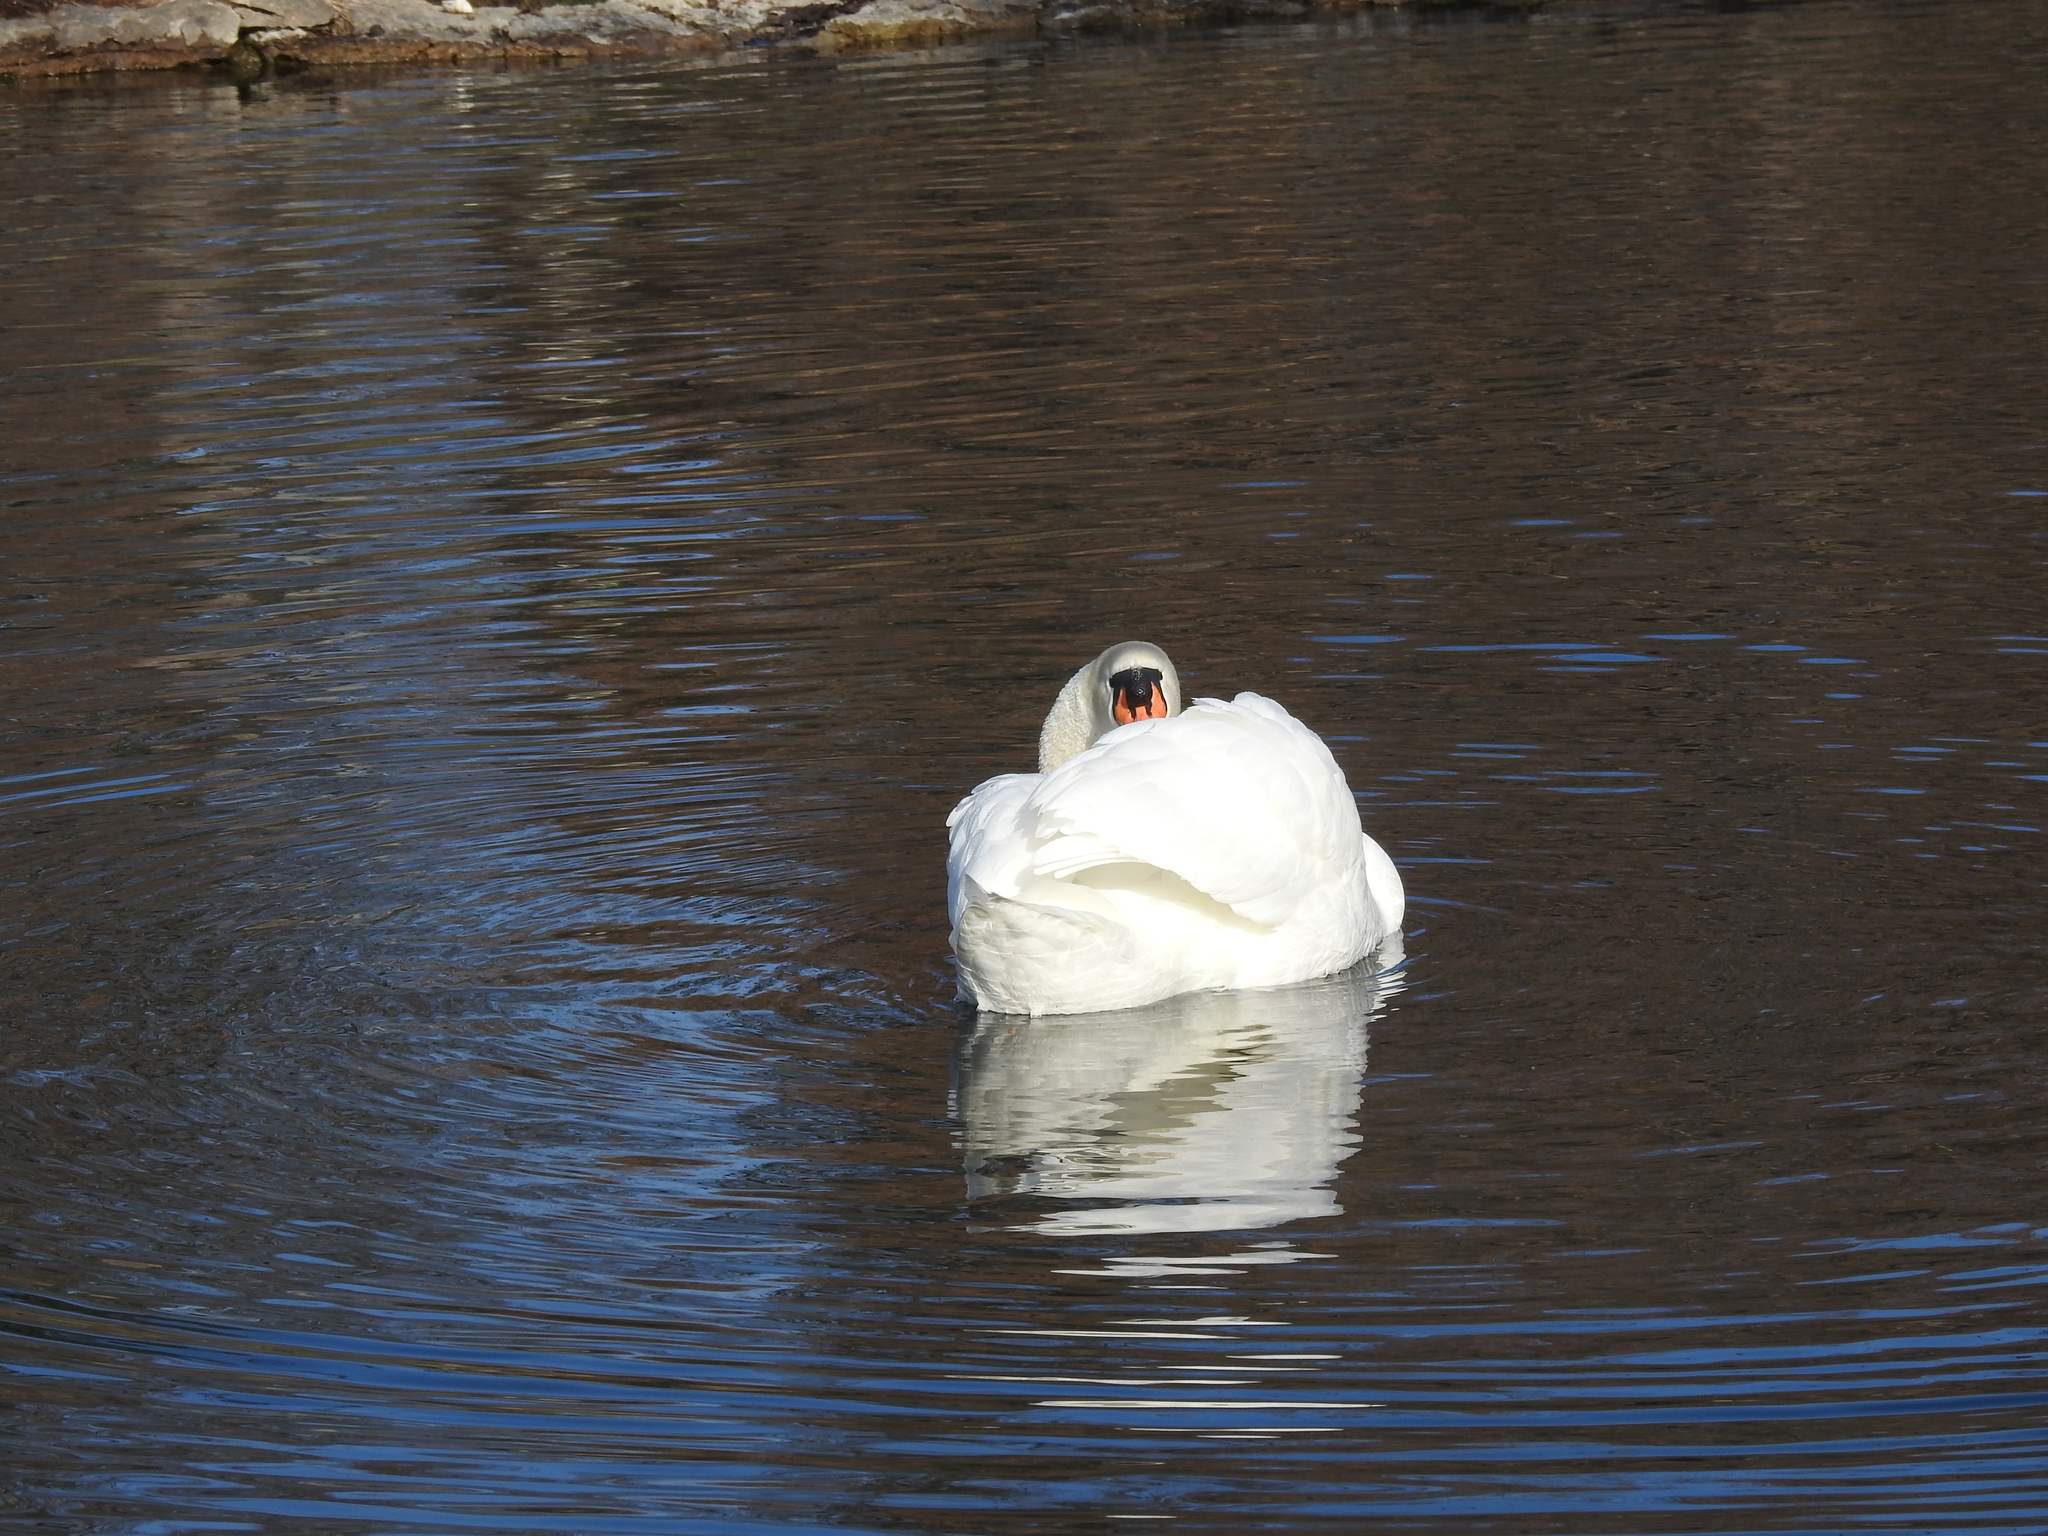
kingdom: Animalia
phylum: Chordata
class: Aves
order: Anseriformes
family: Anatidae
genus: Cygnus
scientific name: Cygnus olor
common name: Mute swan
